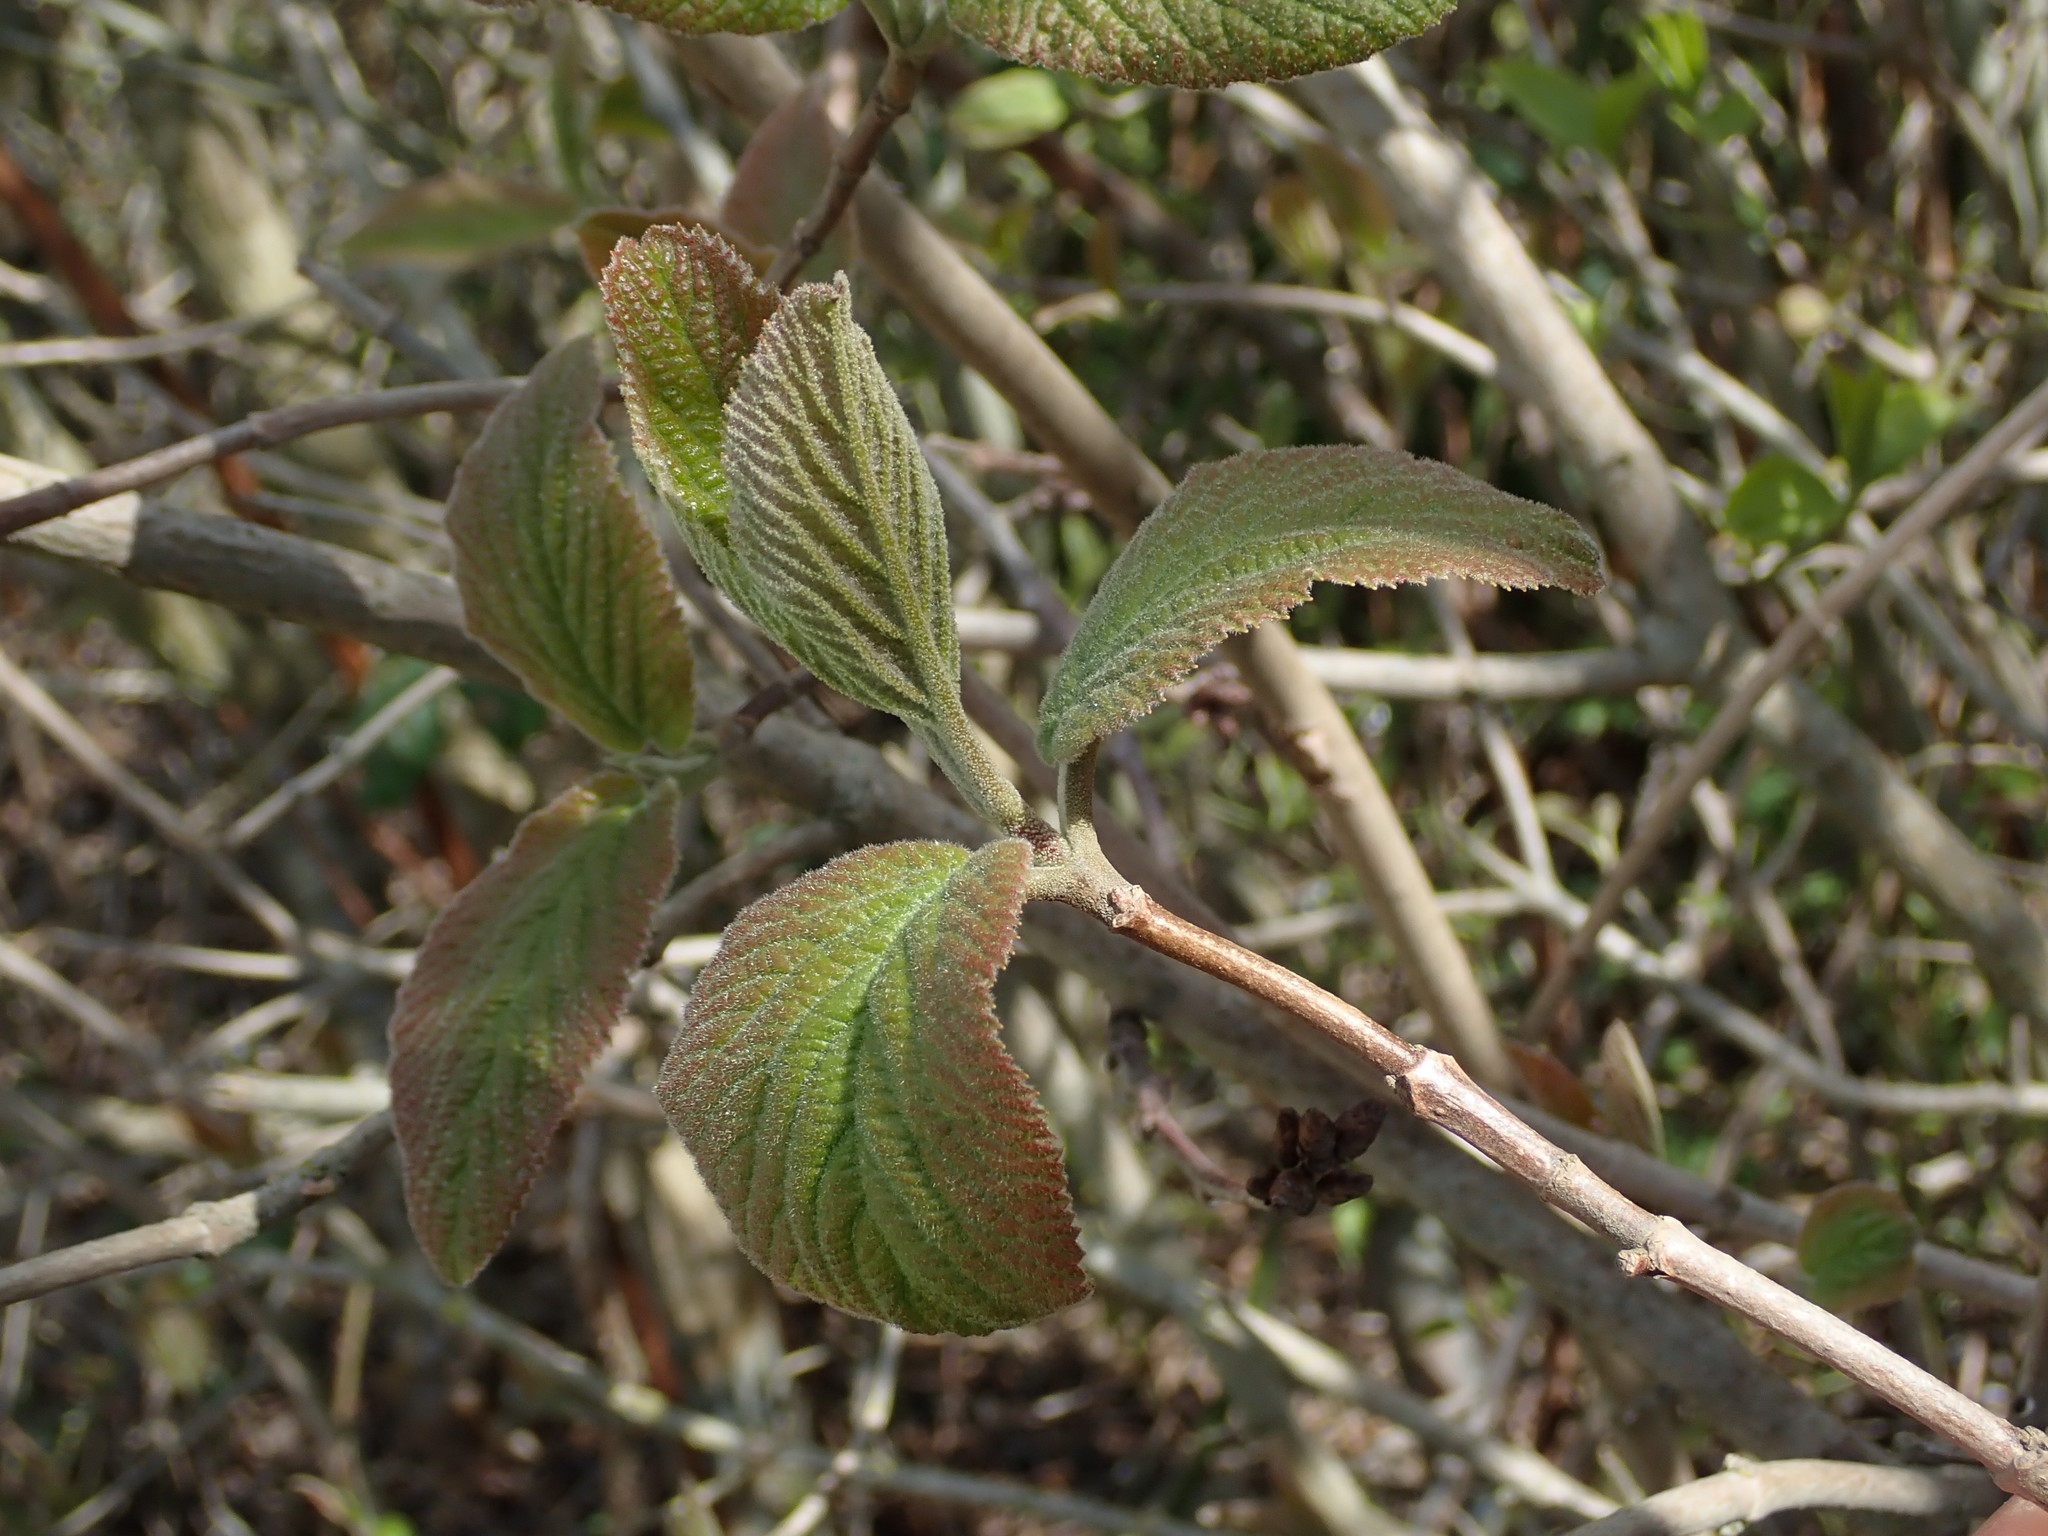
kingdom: Plantae
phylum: Tracheophyta
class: Magnoliopsida
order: Dipsacales
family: Viburnaceae
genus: Viburnum
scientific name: Viburnum lantana
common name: Wayfaring tree
